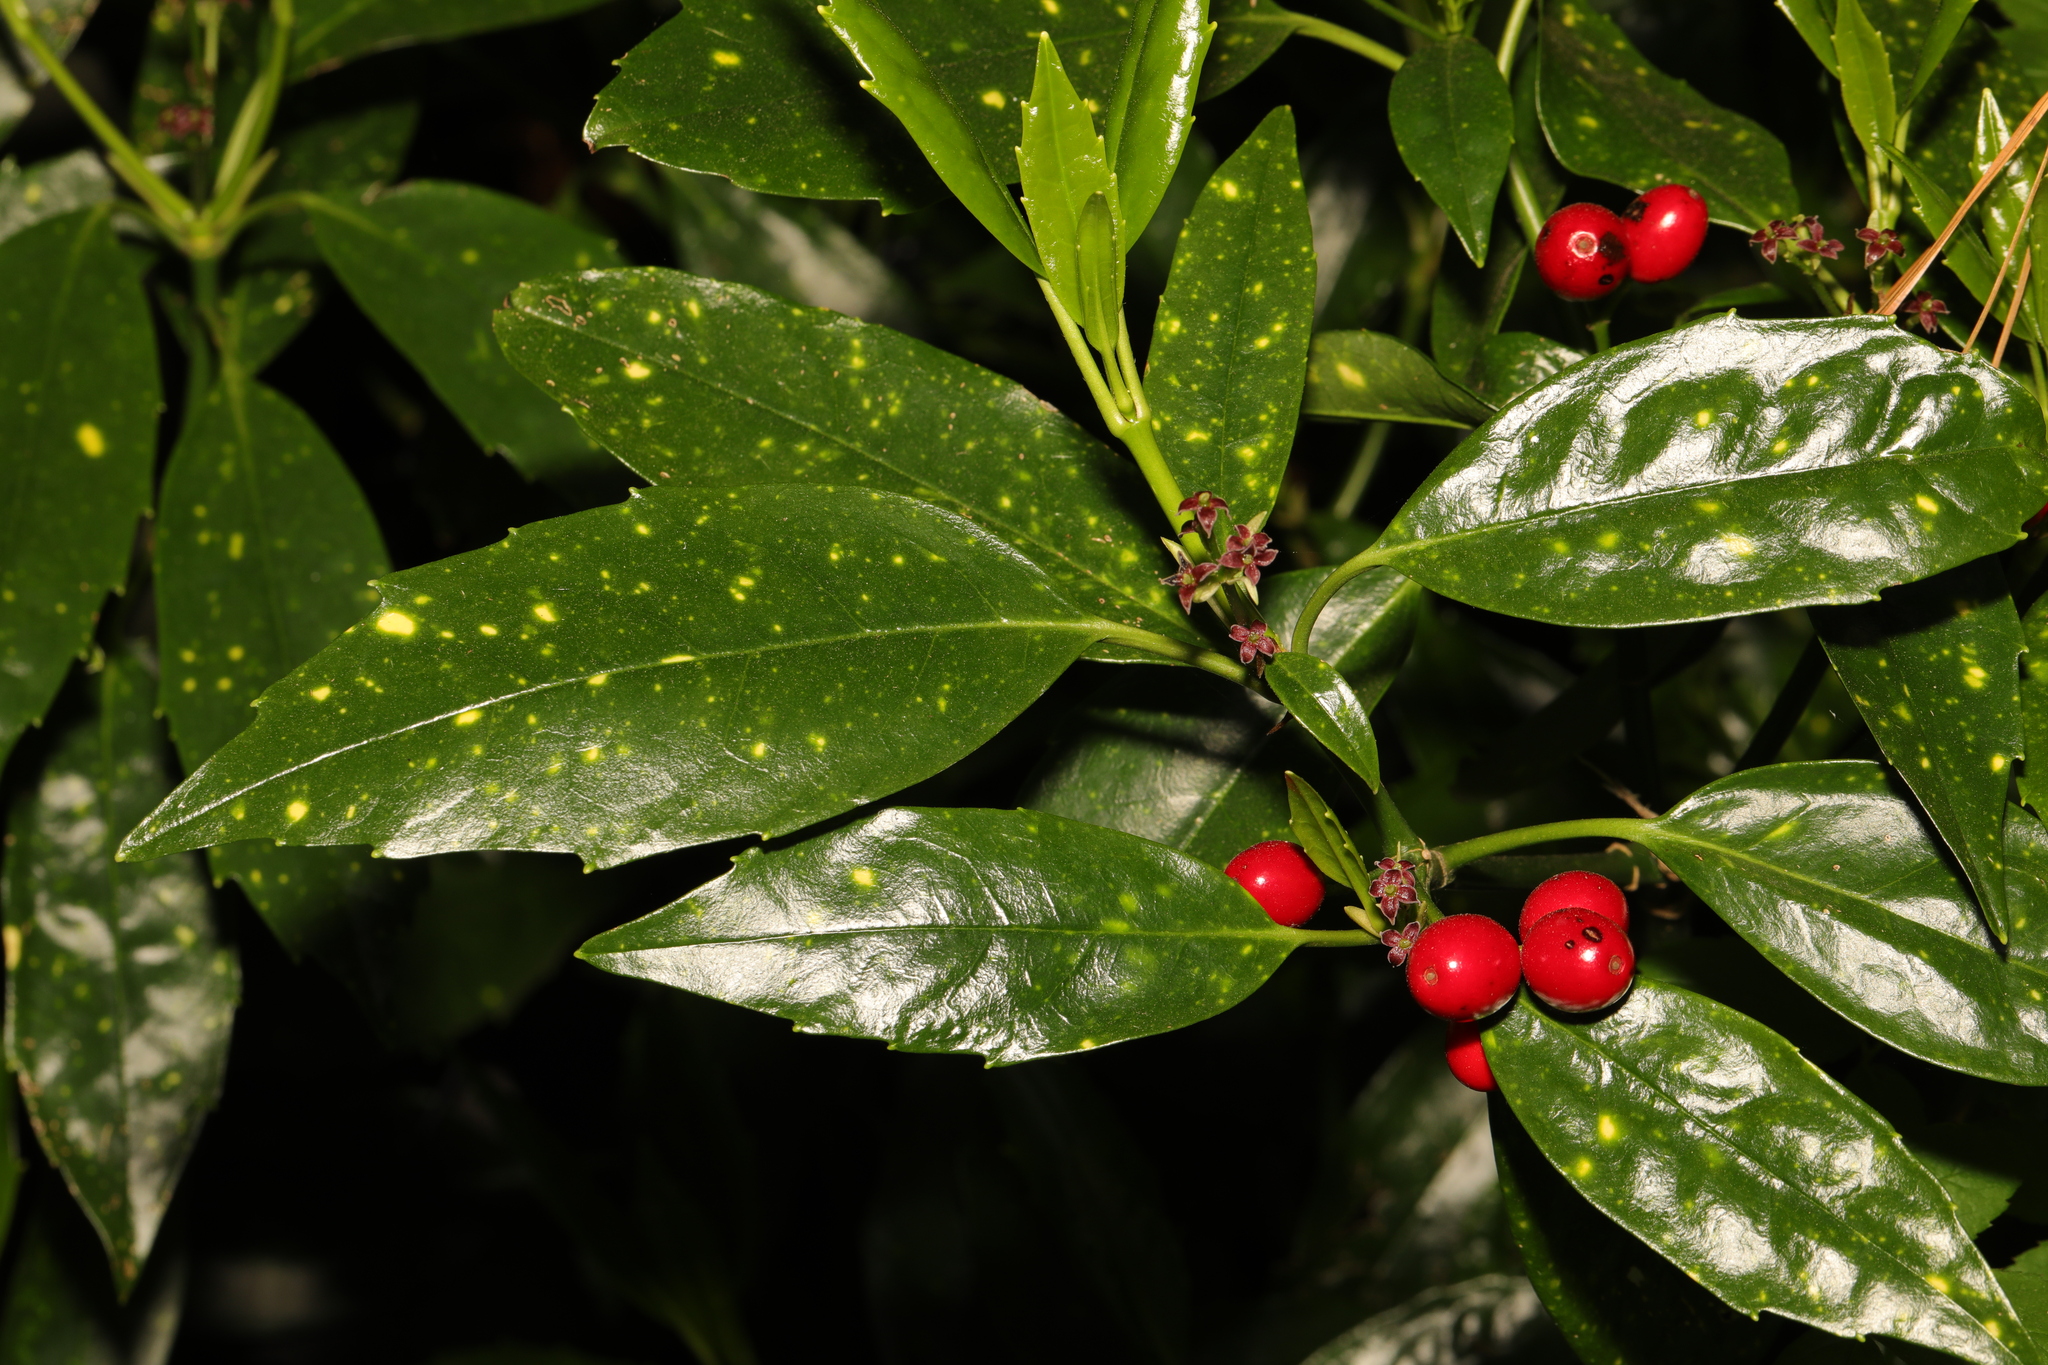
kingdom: Plantae
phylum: Tracheophyta
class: Magnoliopsida
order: Garryales
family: Garryaceae
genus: Aucuba
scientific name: Aucuba japonica
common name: Spotted-laurel
